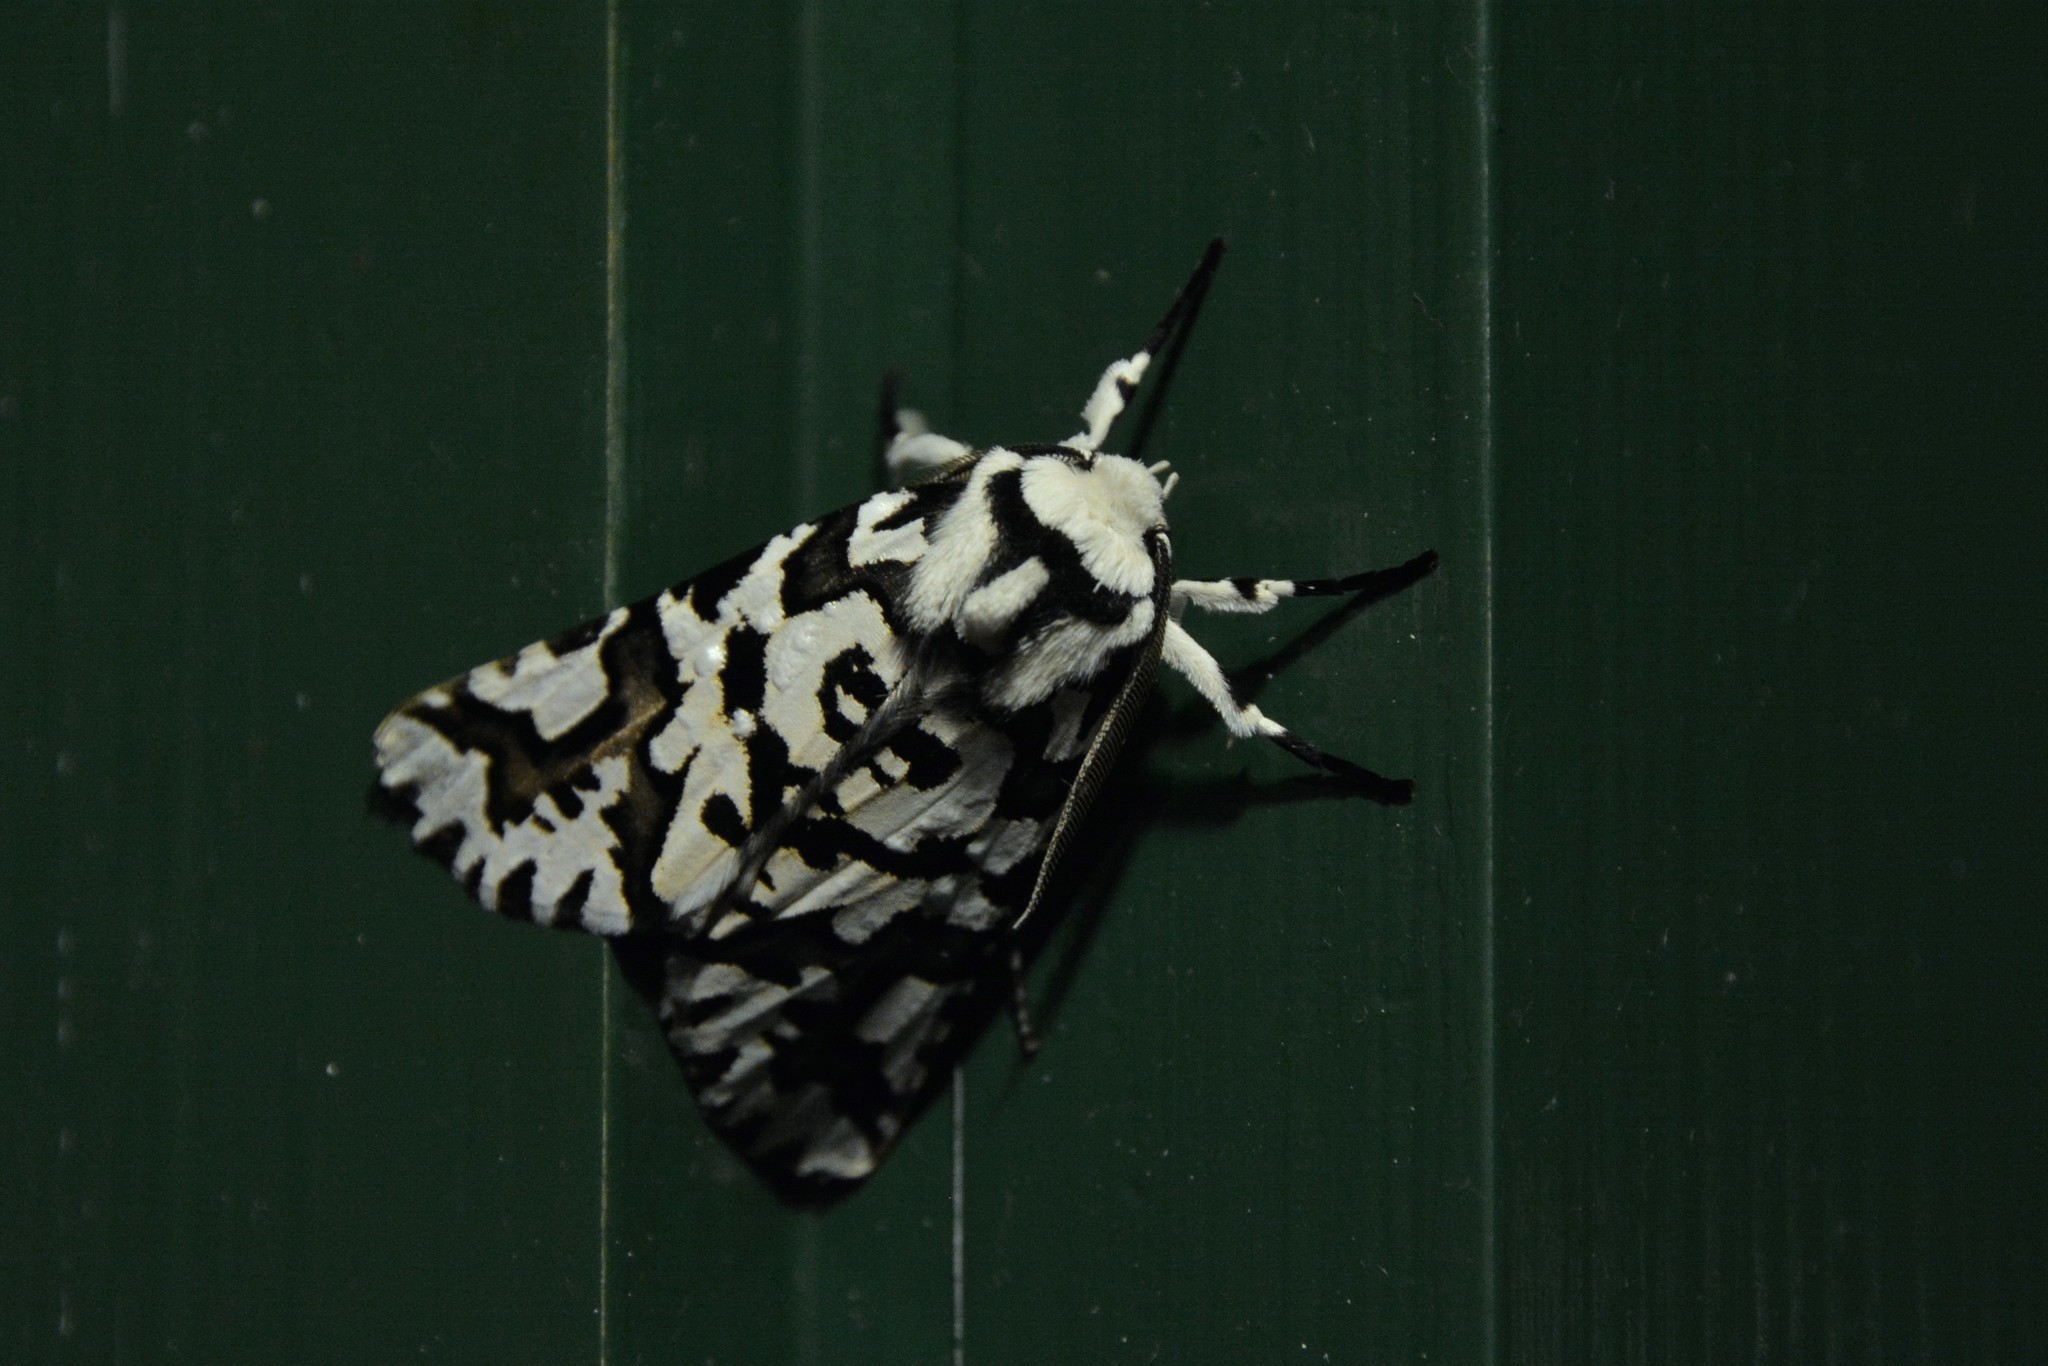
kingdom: Animalia
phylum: Arthropoda
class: Insecta
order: Lepidoptera
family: Geometridae
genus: Declana
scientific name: Declana
